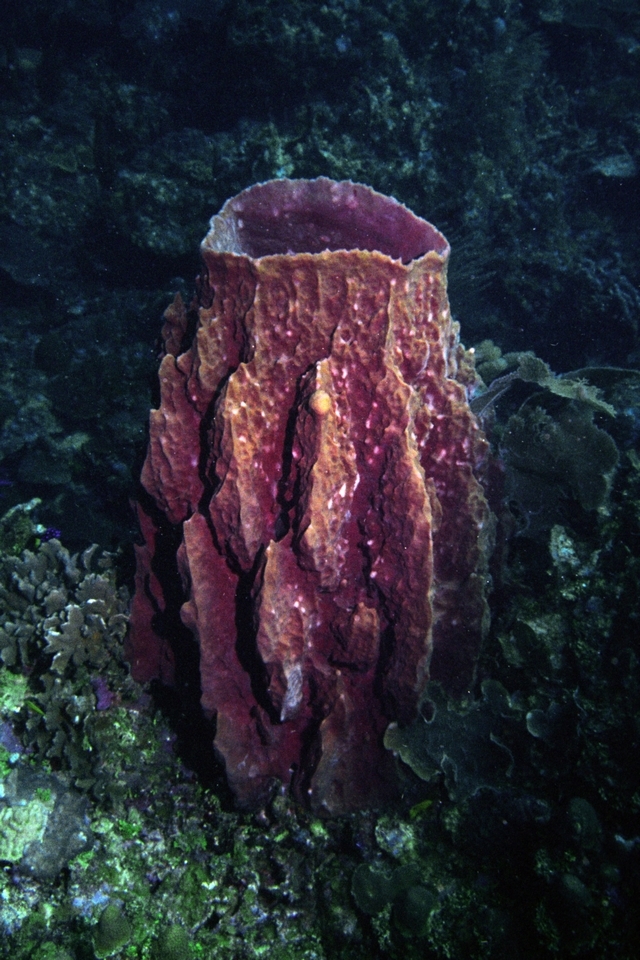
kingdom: Animalia
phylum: Porifera
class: Demospongiae
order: Haplosclerida
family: Petrosiidae
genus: Xestospongia
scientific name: Xestospongia muta
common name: Giant barrel sponge
